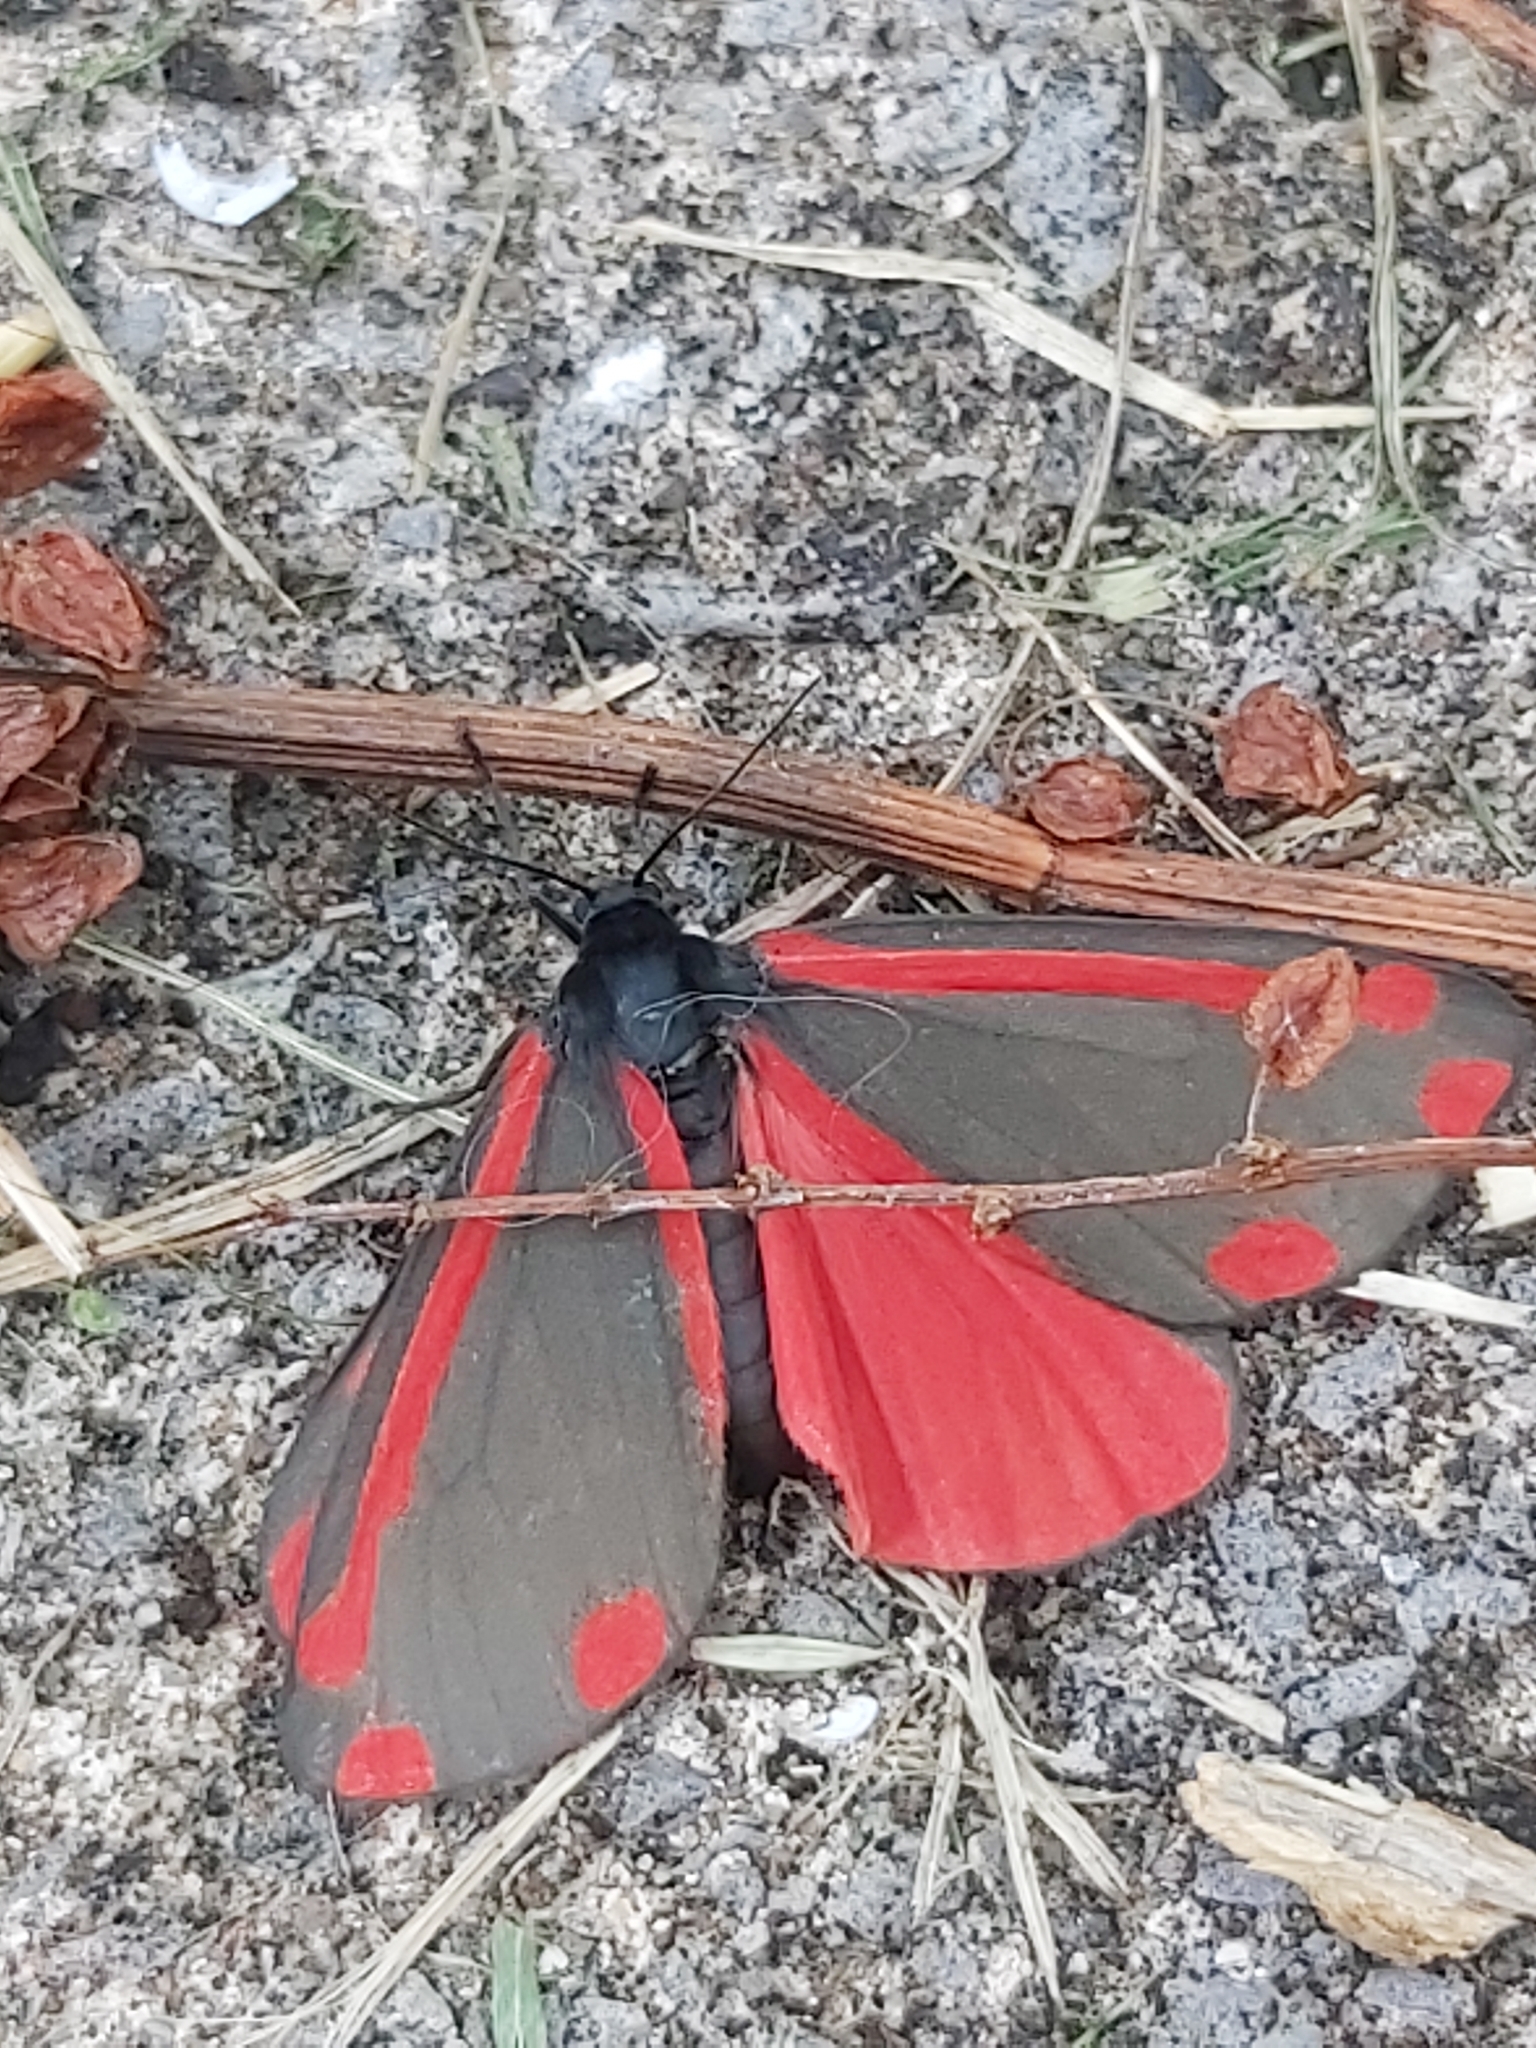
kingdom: Animalia
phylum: Arthropoda
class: Insecta
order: Lepidoptera
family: Erebidae
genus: Tyria
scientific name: Tyria jacobaeae
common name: Cinnabar
